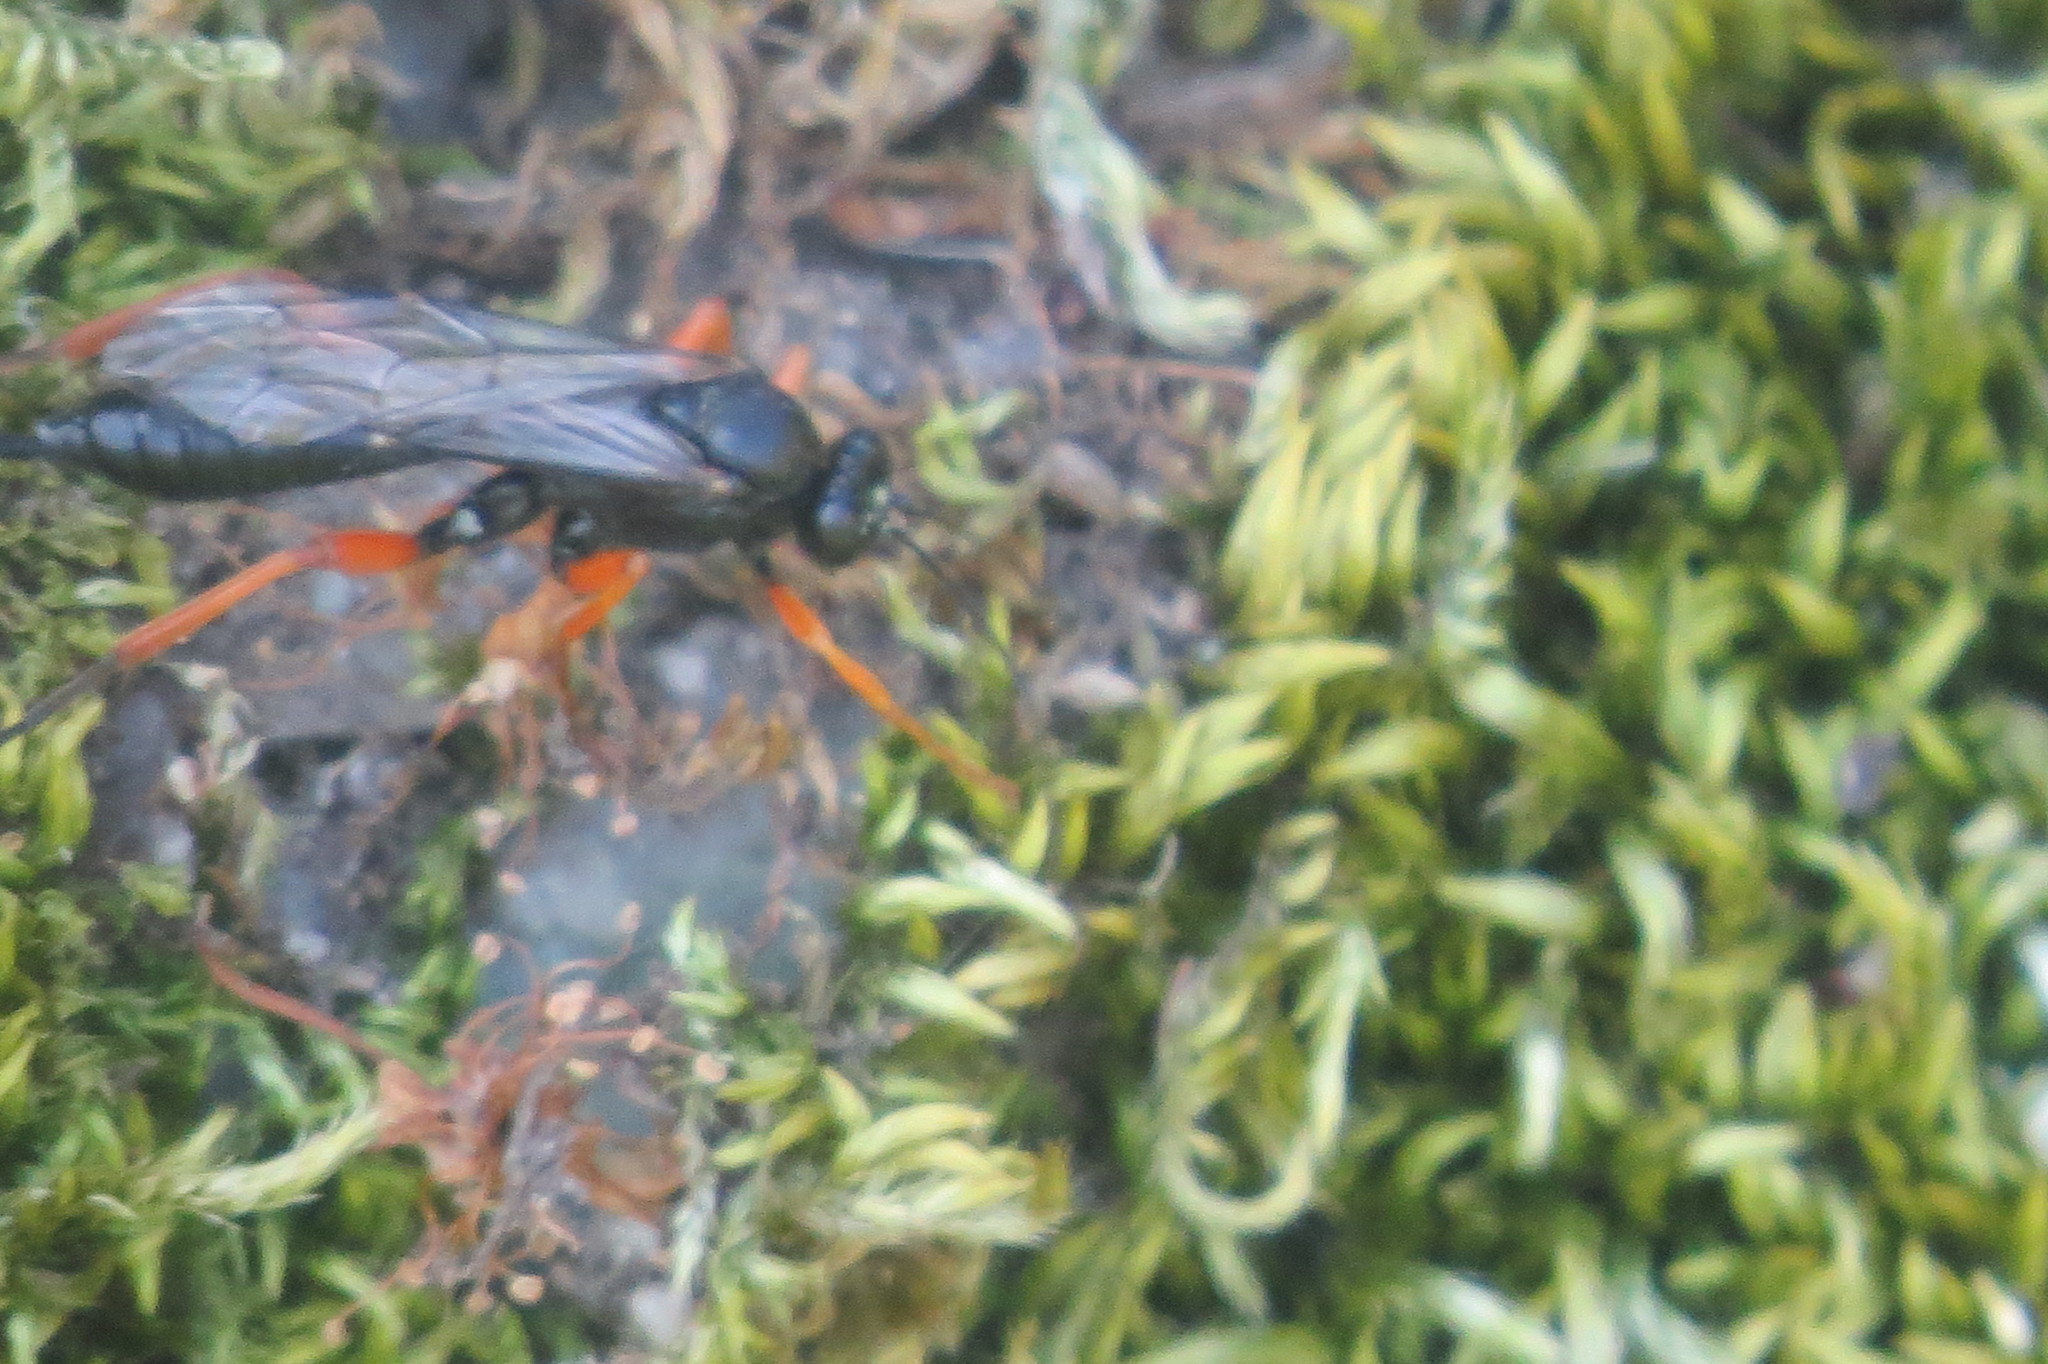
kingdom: Animalia
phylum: Arthropoda
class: Insecta
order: Hymenoptera
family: Ichneumonidae
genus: Pimpla
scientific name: Pimpla rufipes
